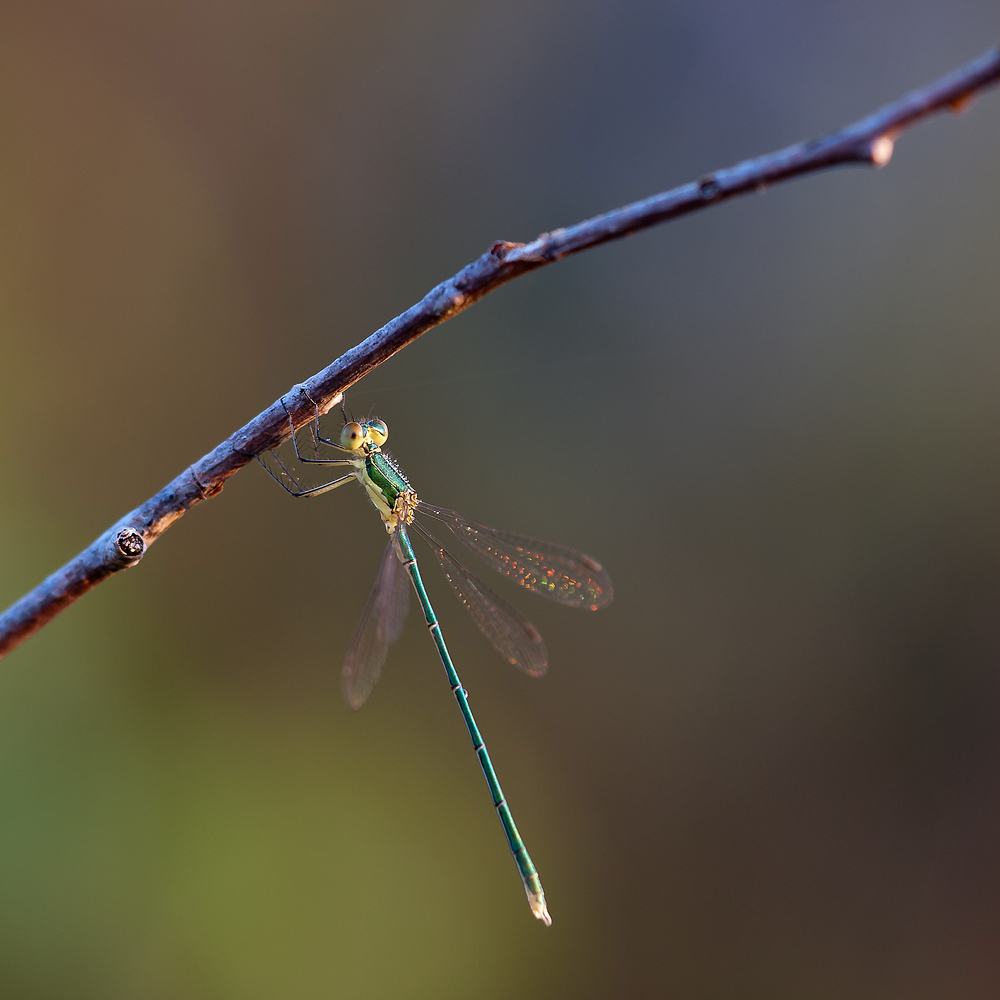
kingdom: Animalia
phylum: Arthropoda
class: Insecta
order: Odonata
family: Lestidae
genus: Lestes
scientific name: Lestes virens
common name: Small emerald spreadwing
